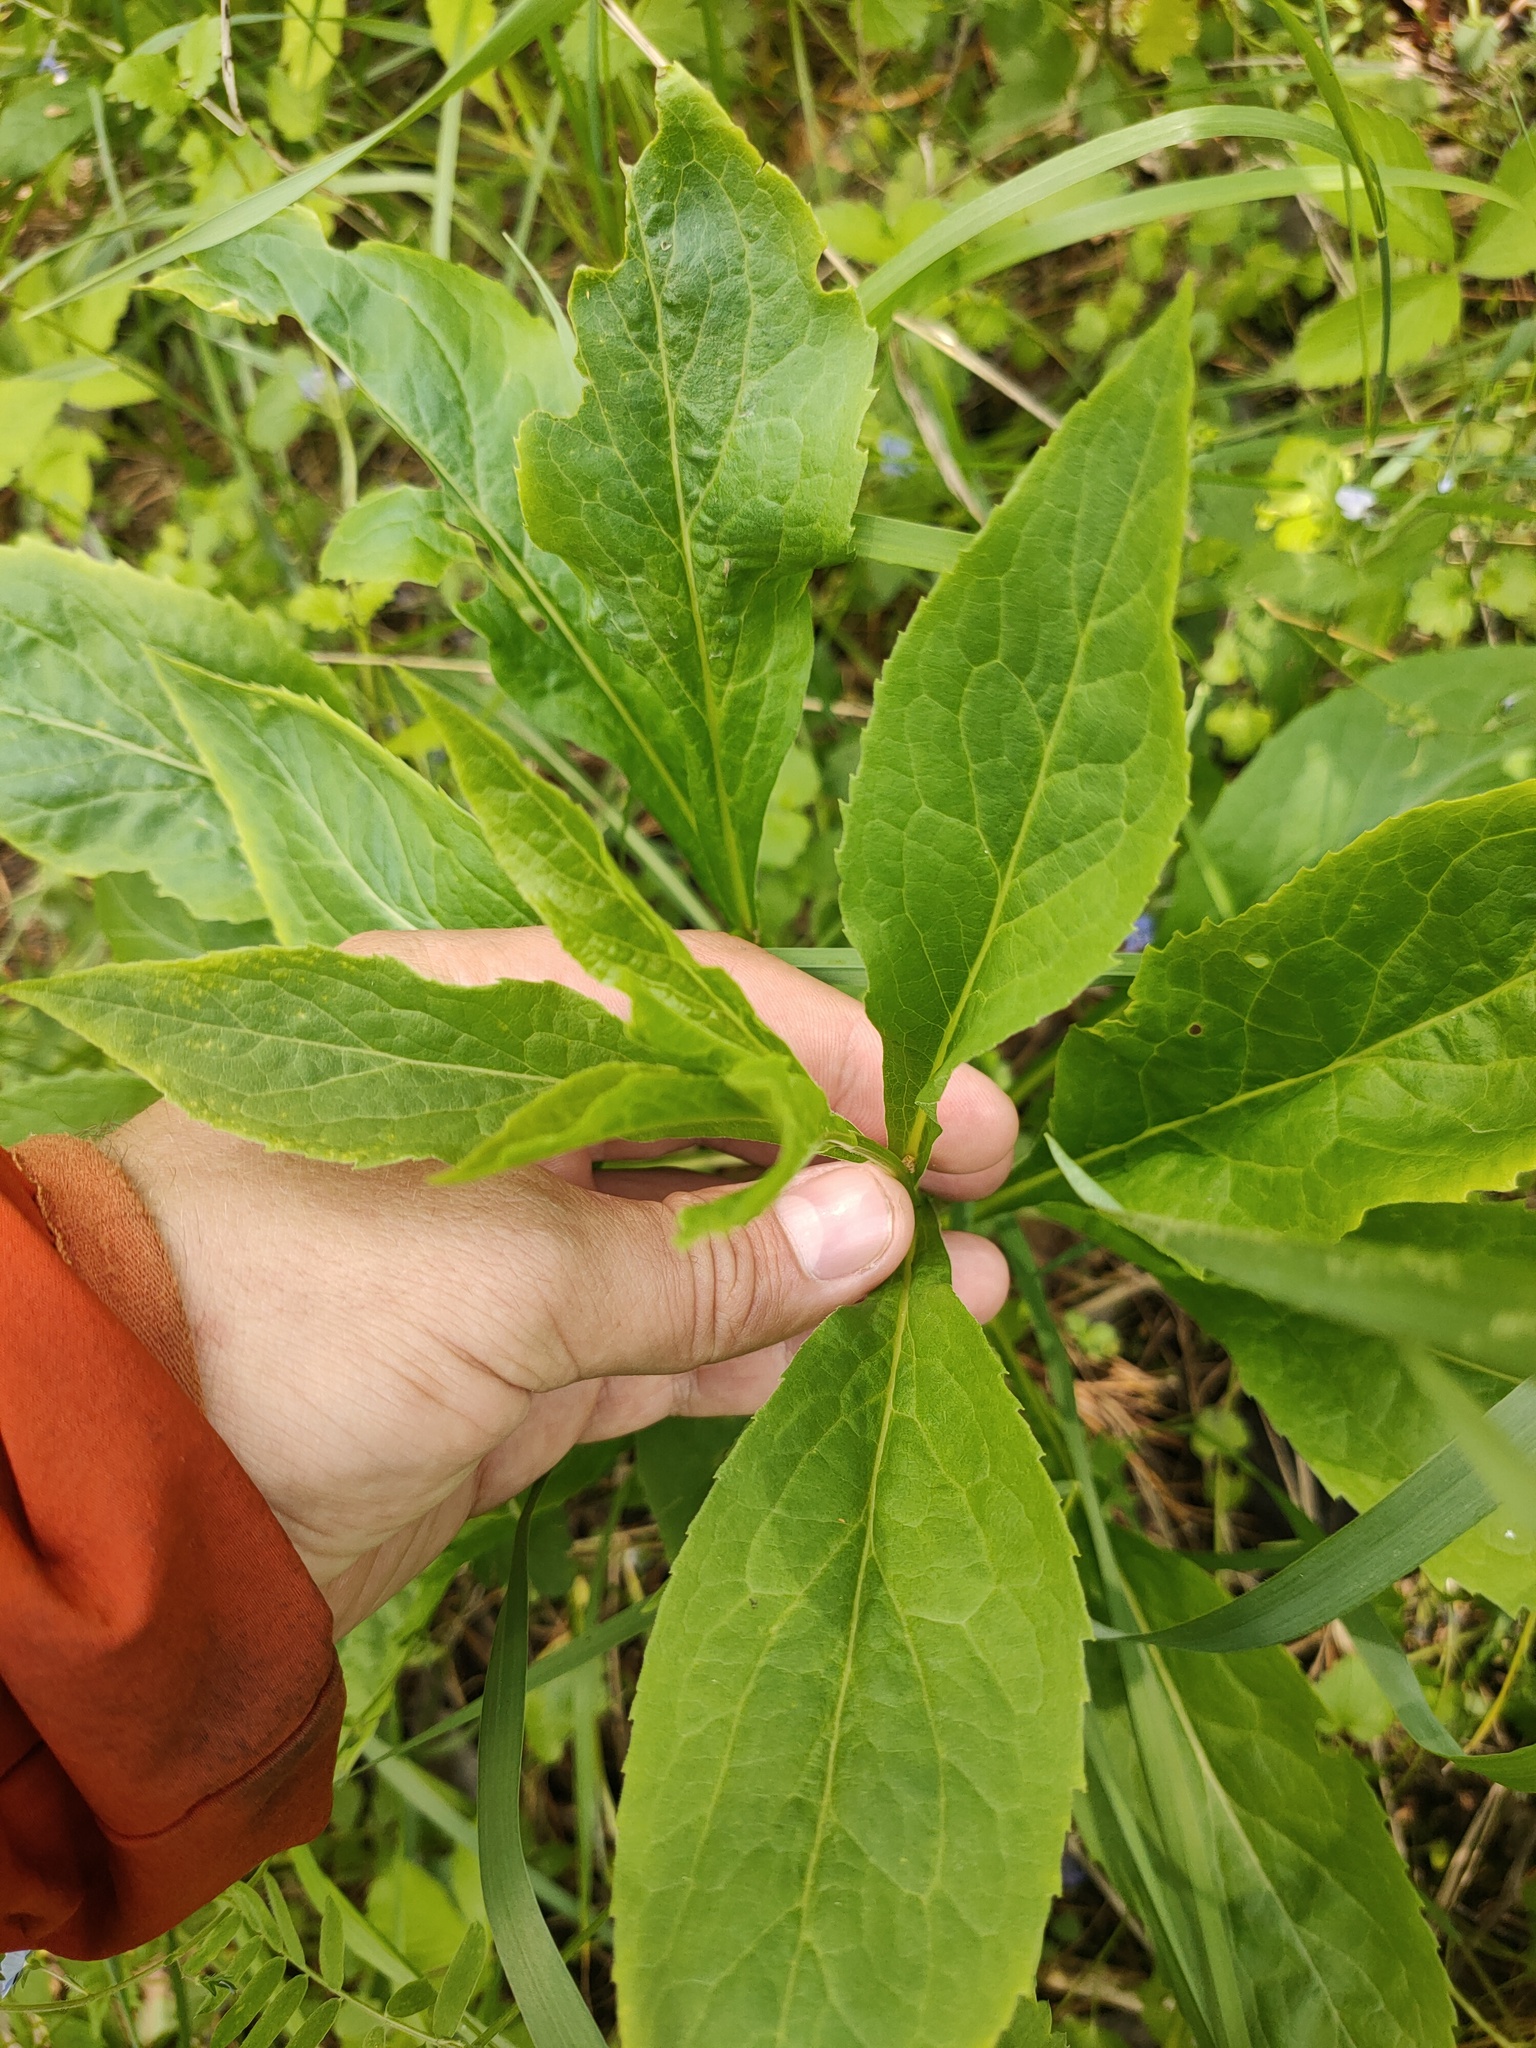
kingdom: Plantae
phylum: Tracheophyta
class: Magnoliopsida
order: Asterales
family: Asteraceae
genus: Solidago
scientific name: Solidago virgaurea
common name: Goldenrod
